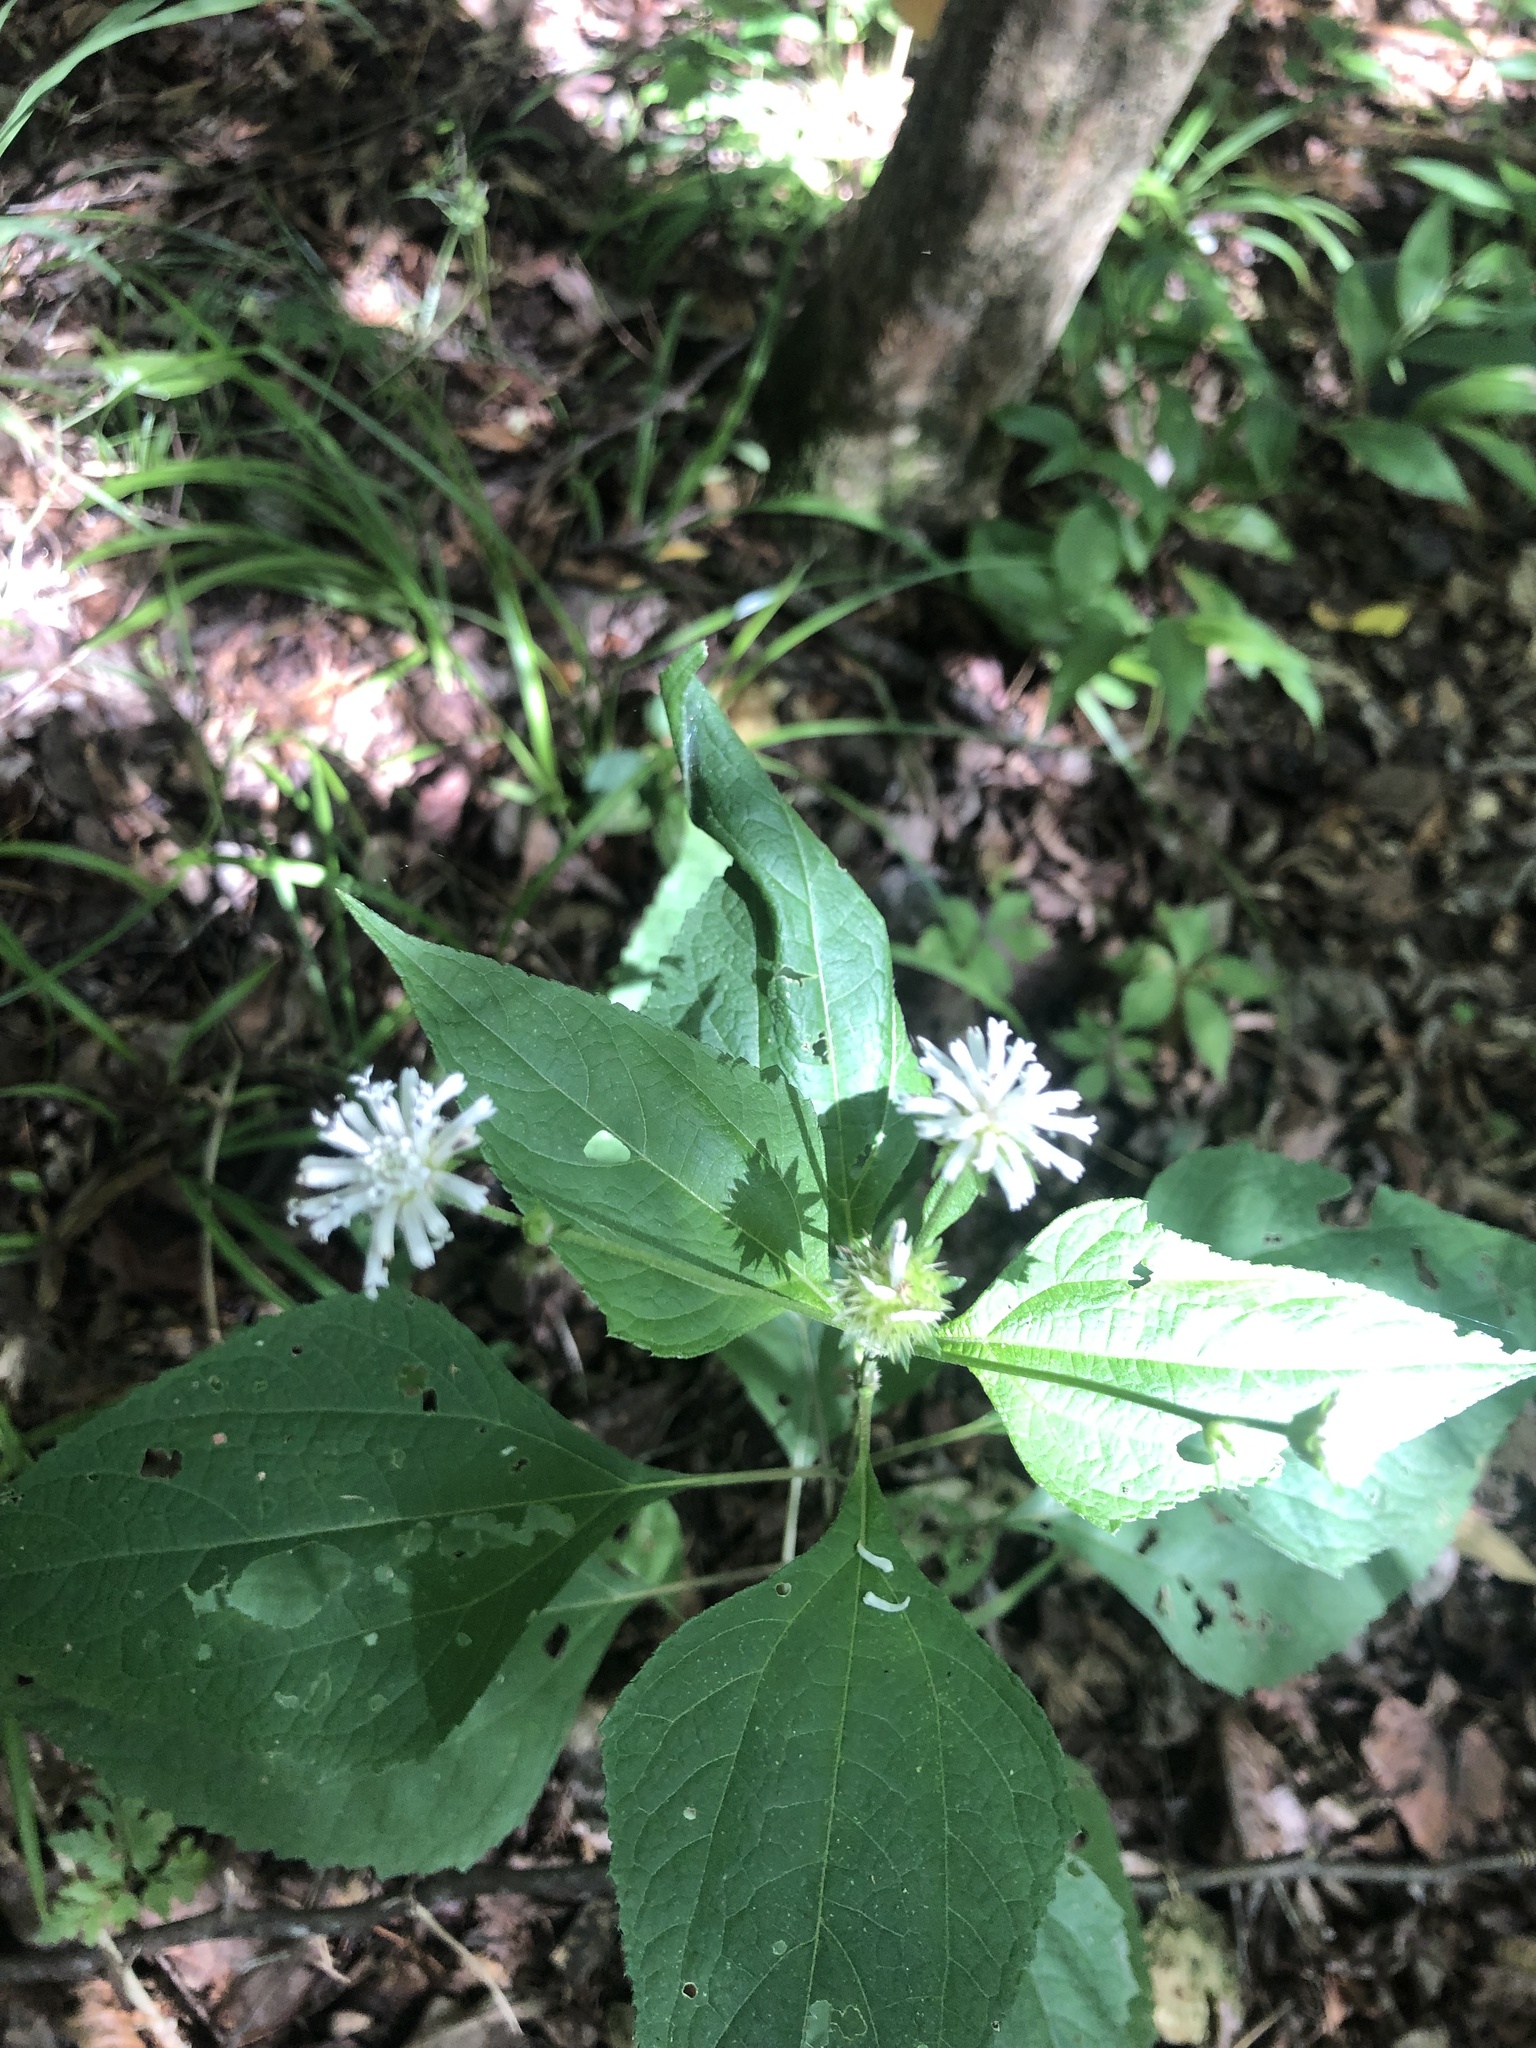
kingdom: Plantae
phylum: Tracheophyta
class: Magnoliopsida
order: Asterales
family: Asteraceae
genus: Melanthera
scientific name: Melanthera nivea
